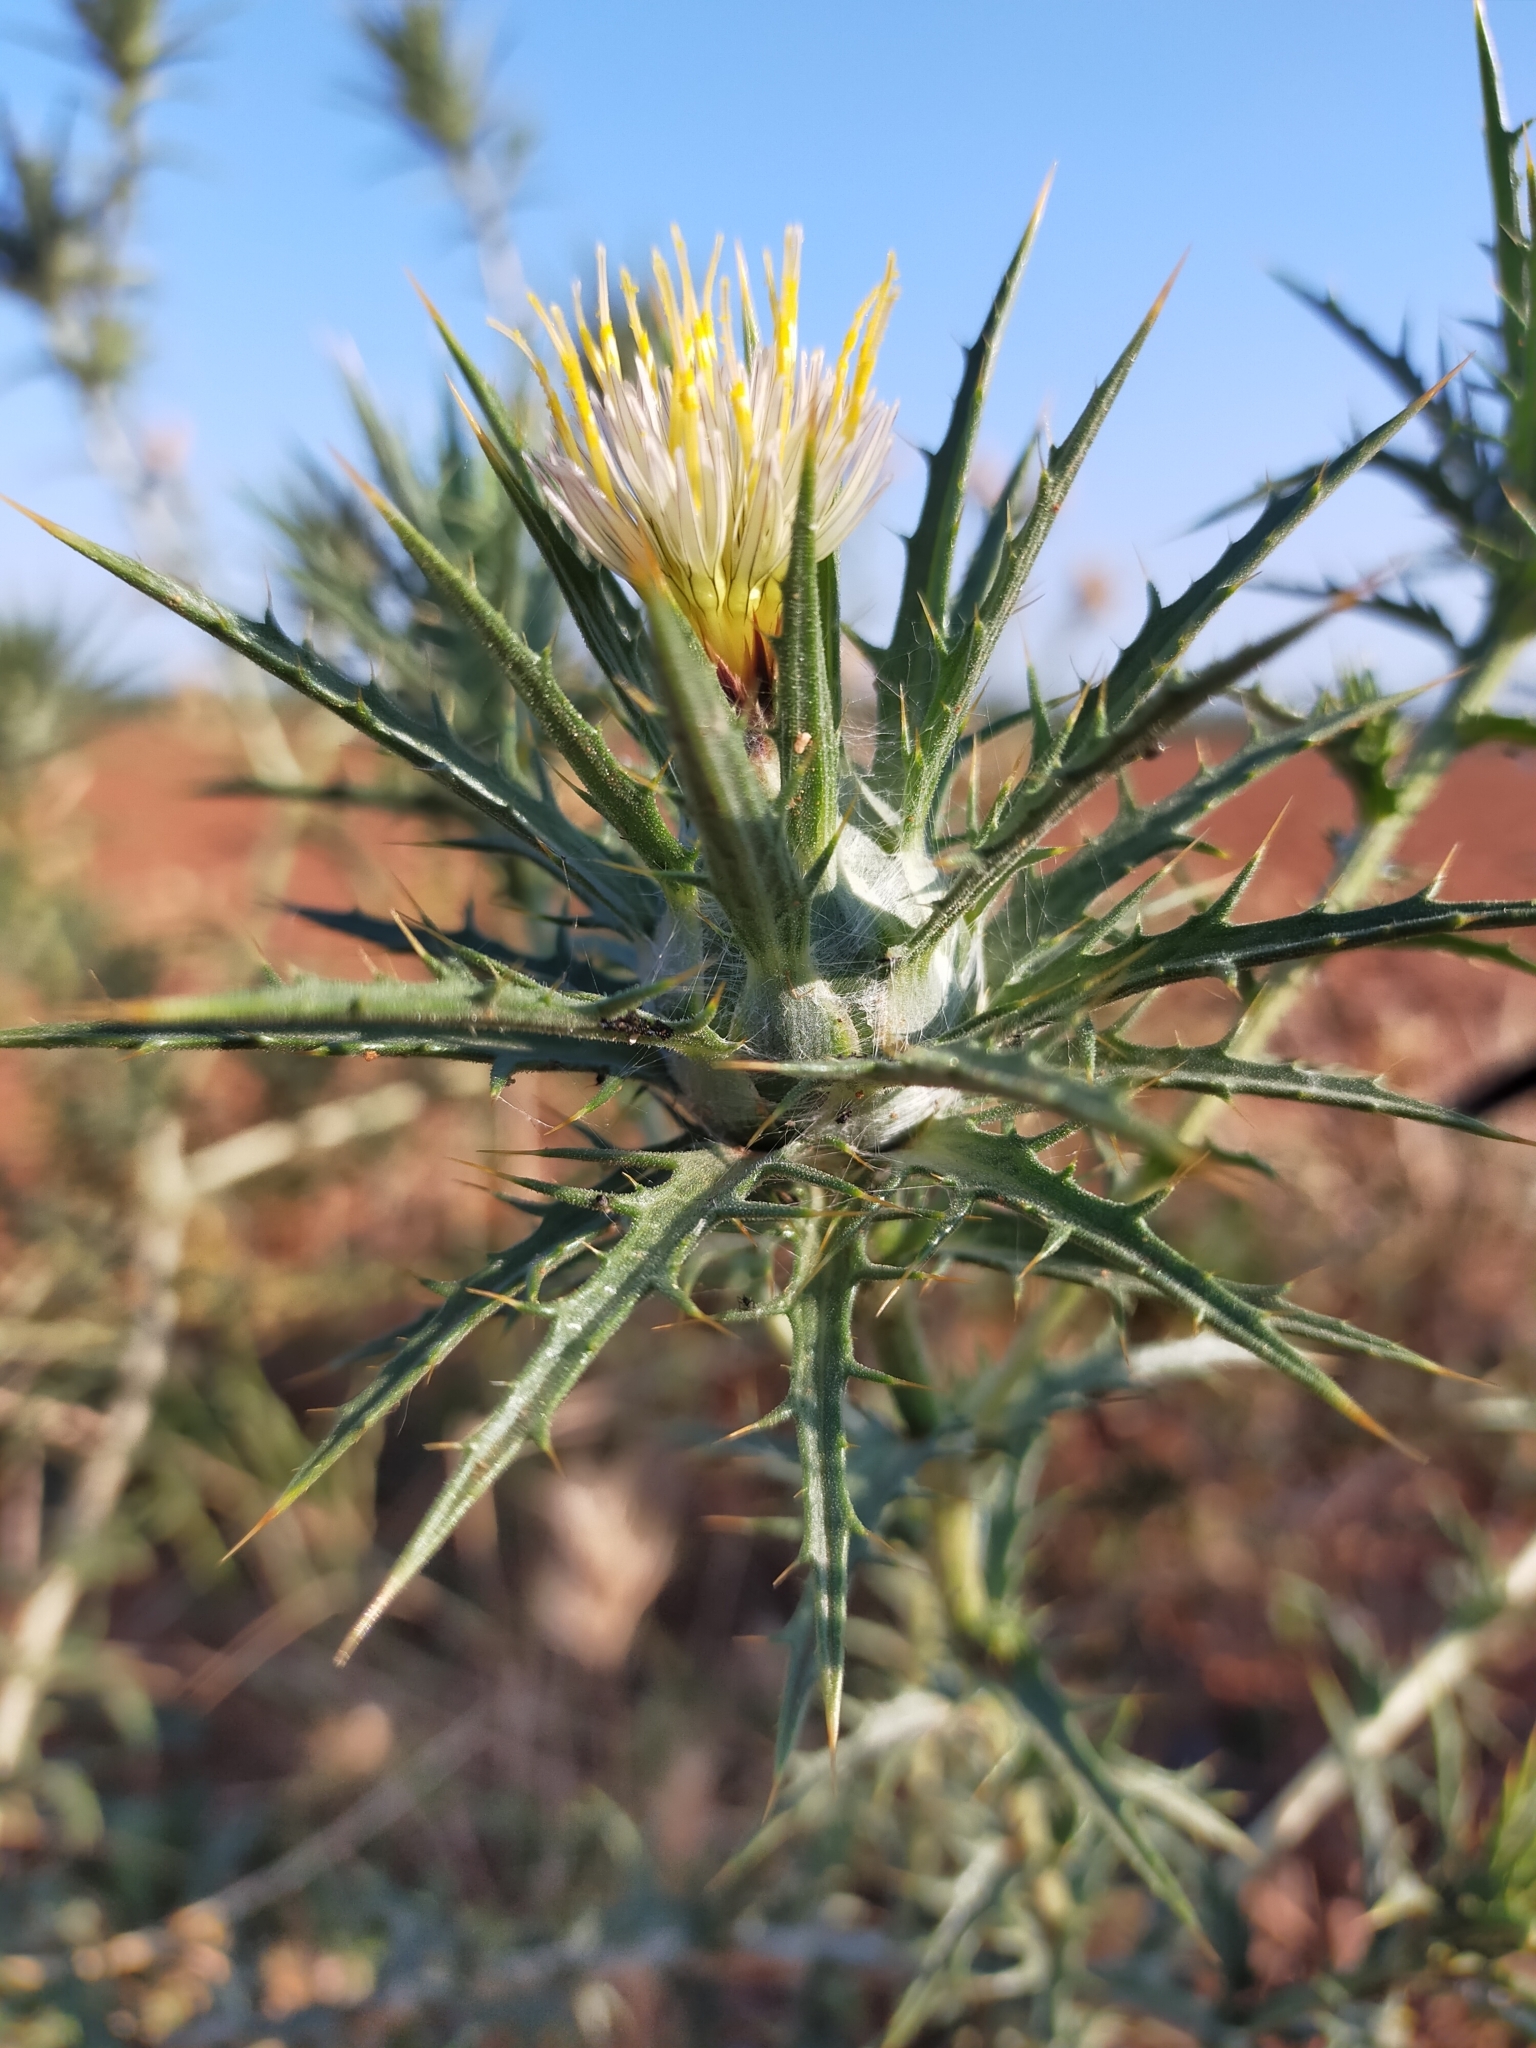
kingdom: Plantae
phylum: Tracheophyta
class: Magnoliopsida
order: Asterales
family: Asteraceae
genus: Carthamus
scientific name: Carthamus lanatus
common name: Downy safflower
